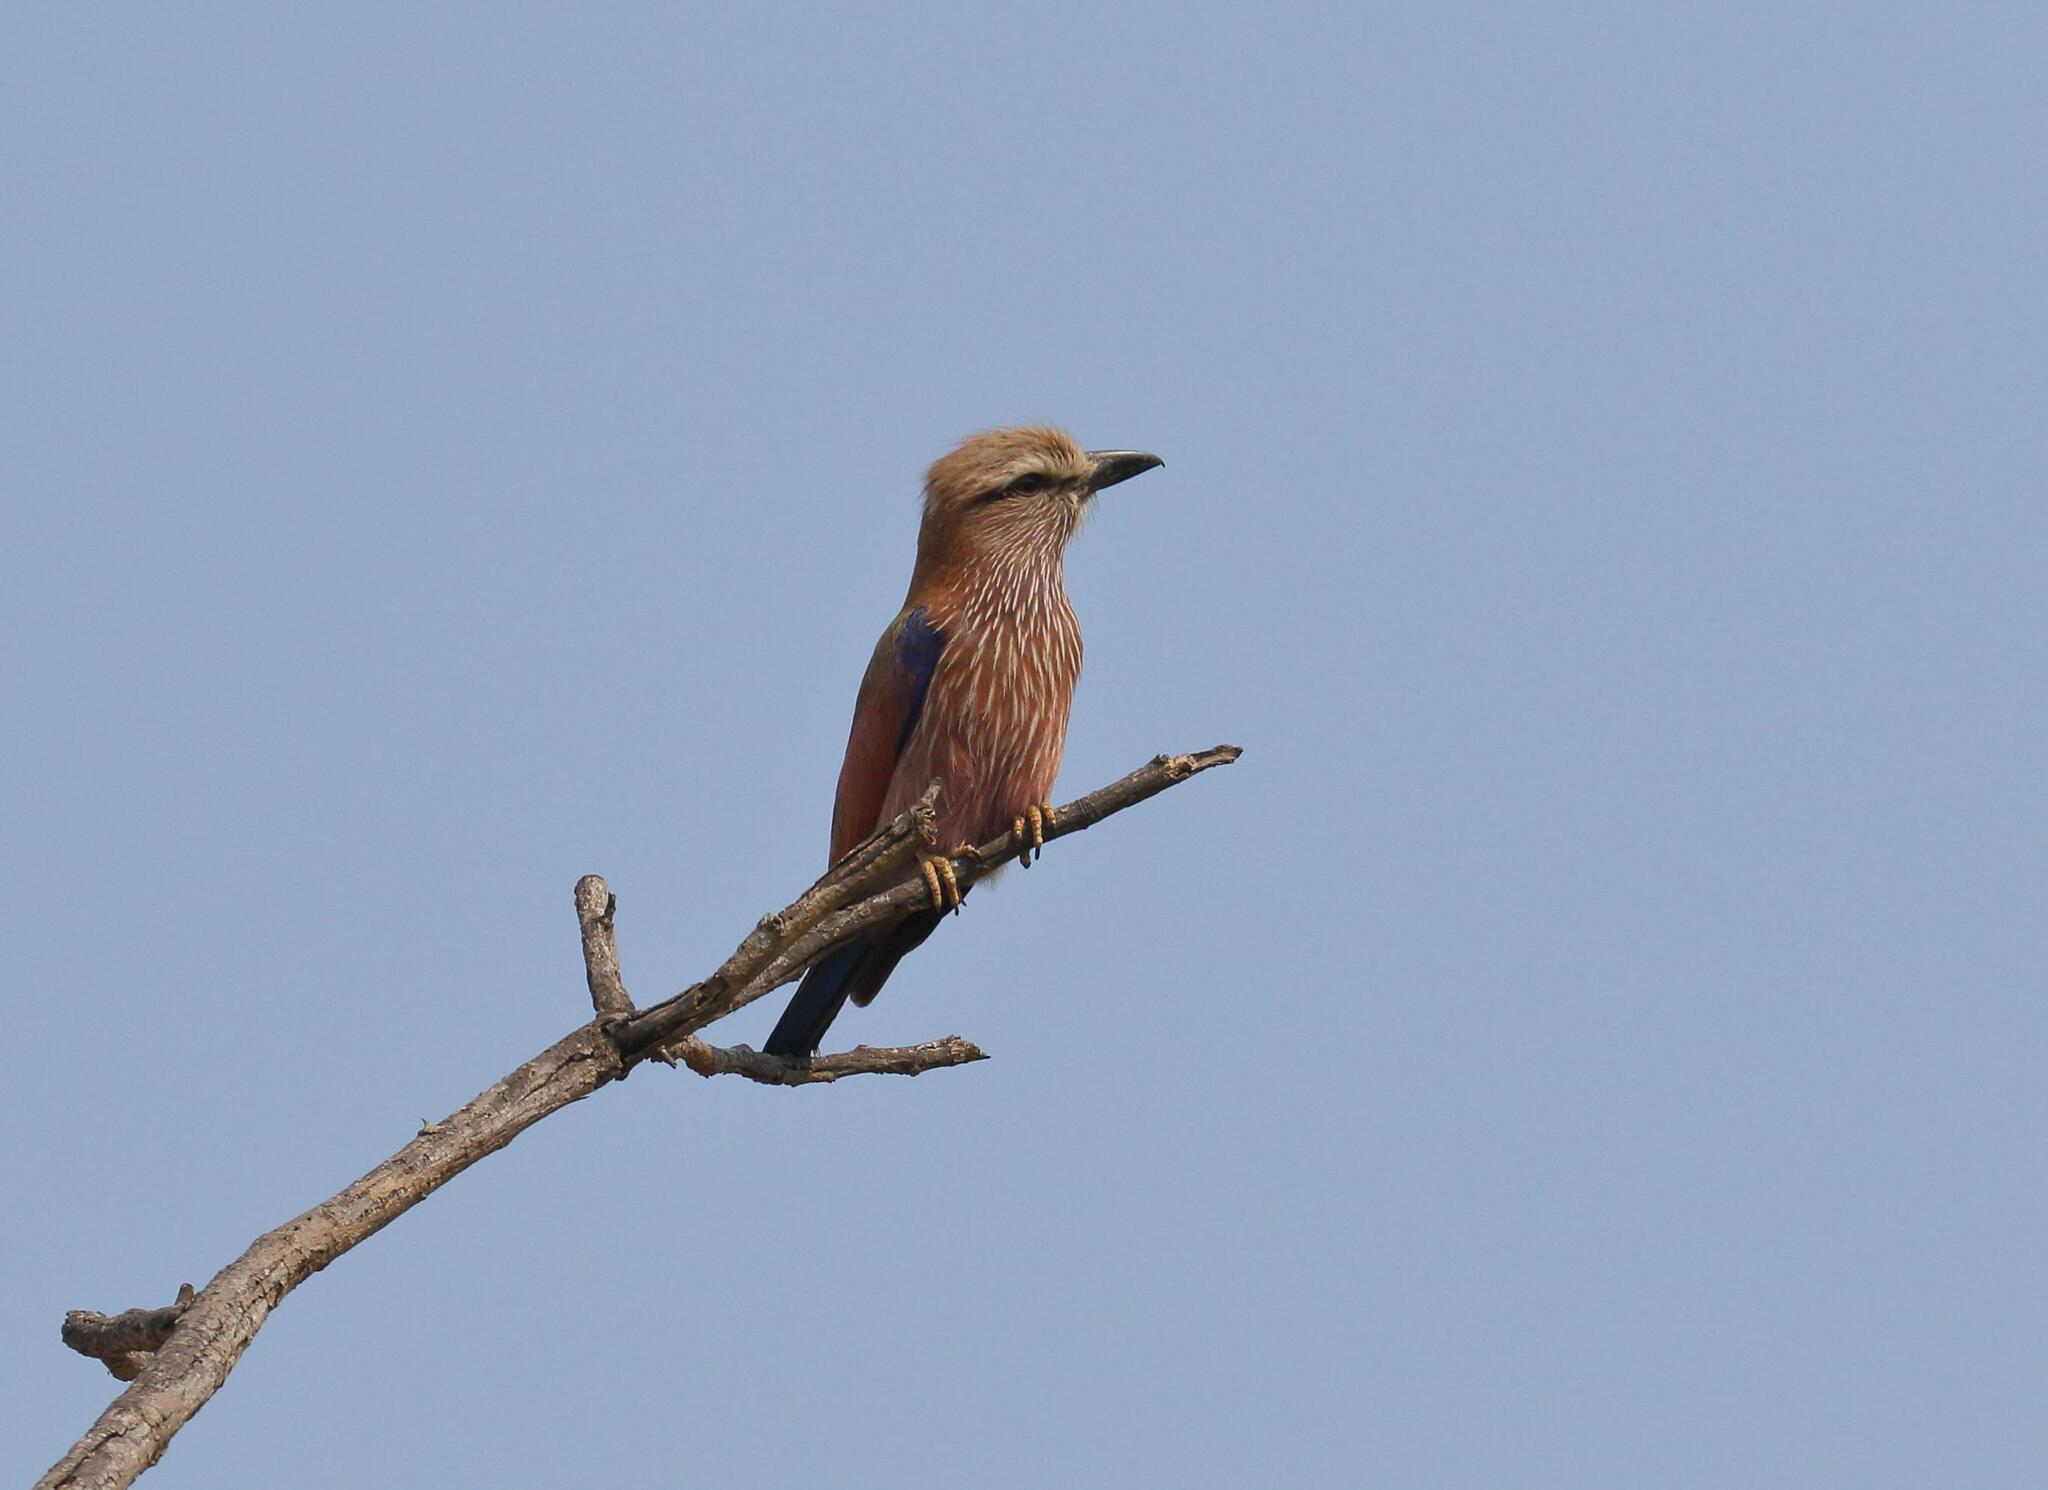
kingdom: Animalia
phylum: Chordata
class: Aves
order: Coraciiformes
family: Coraciidae
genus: Coracias
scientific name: Coracias naevius
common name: Purple roller
